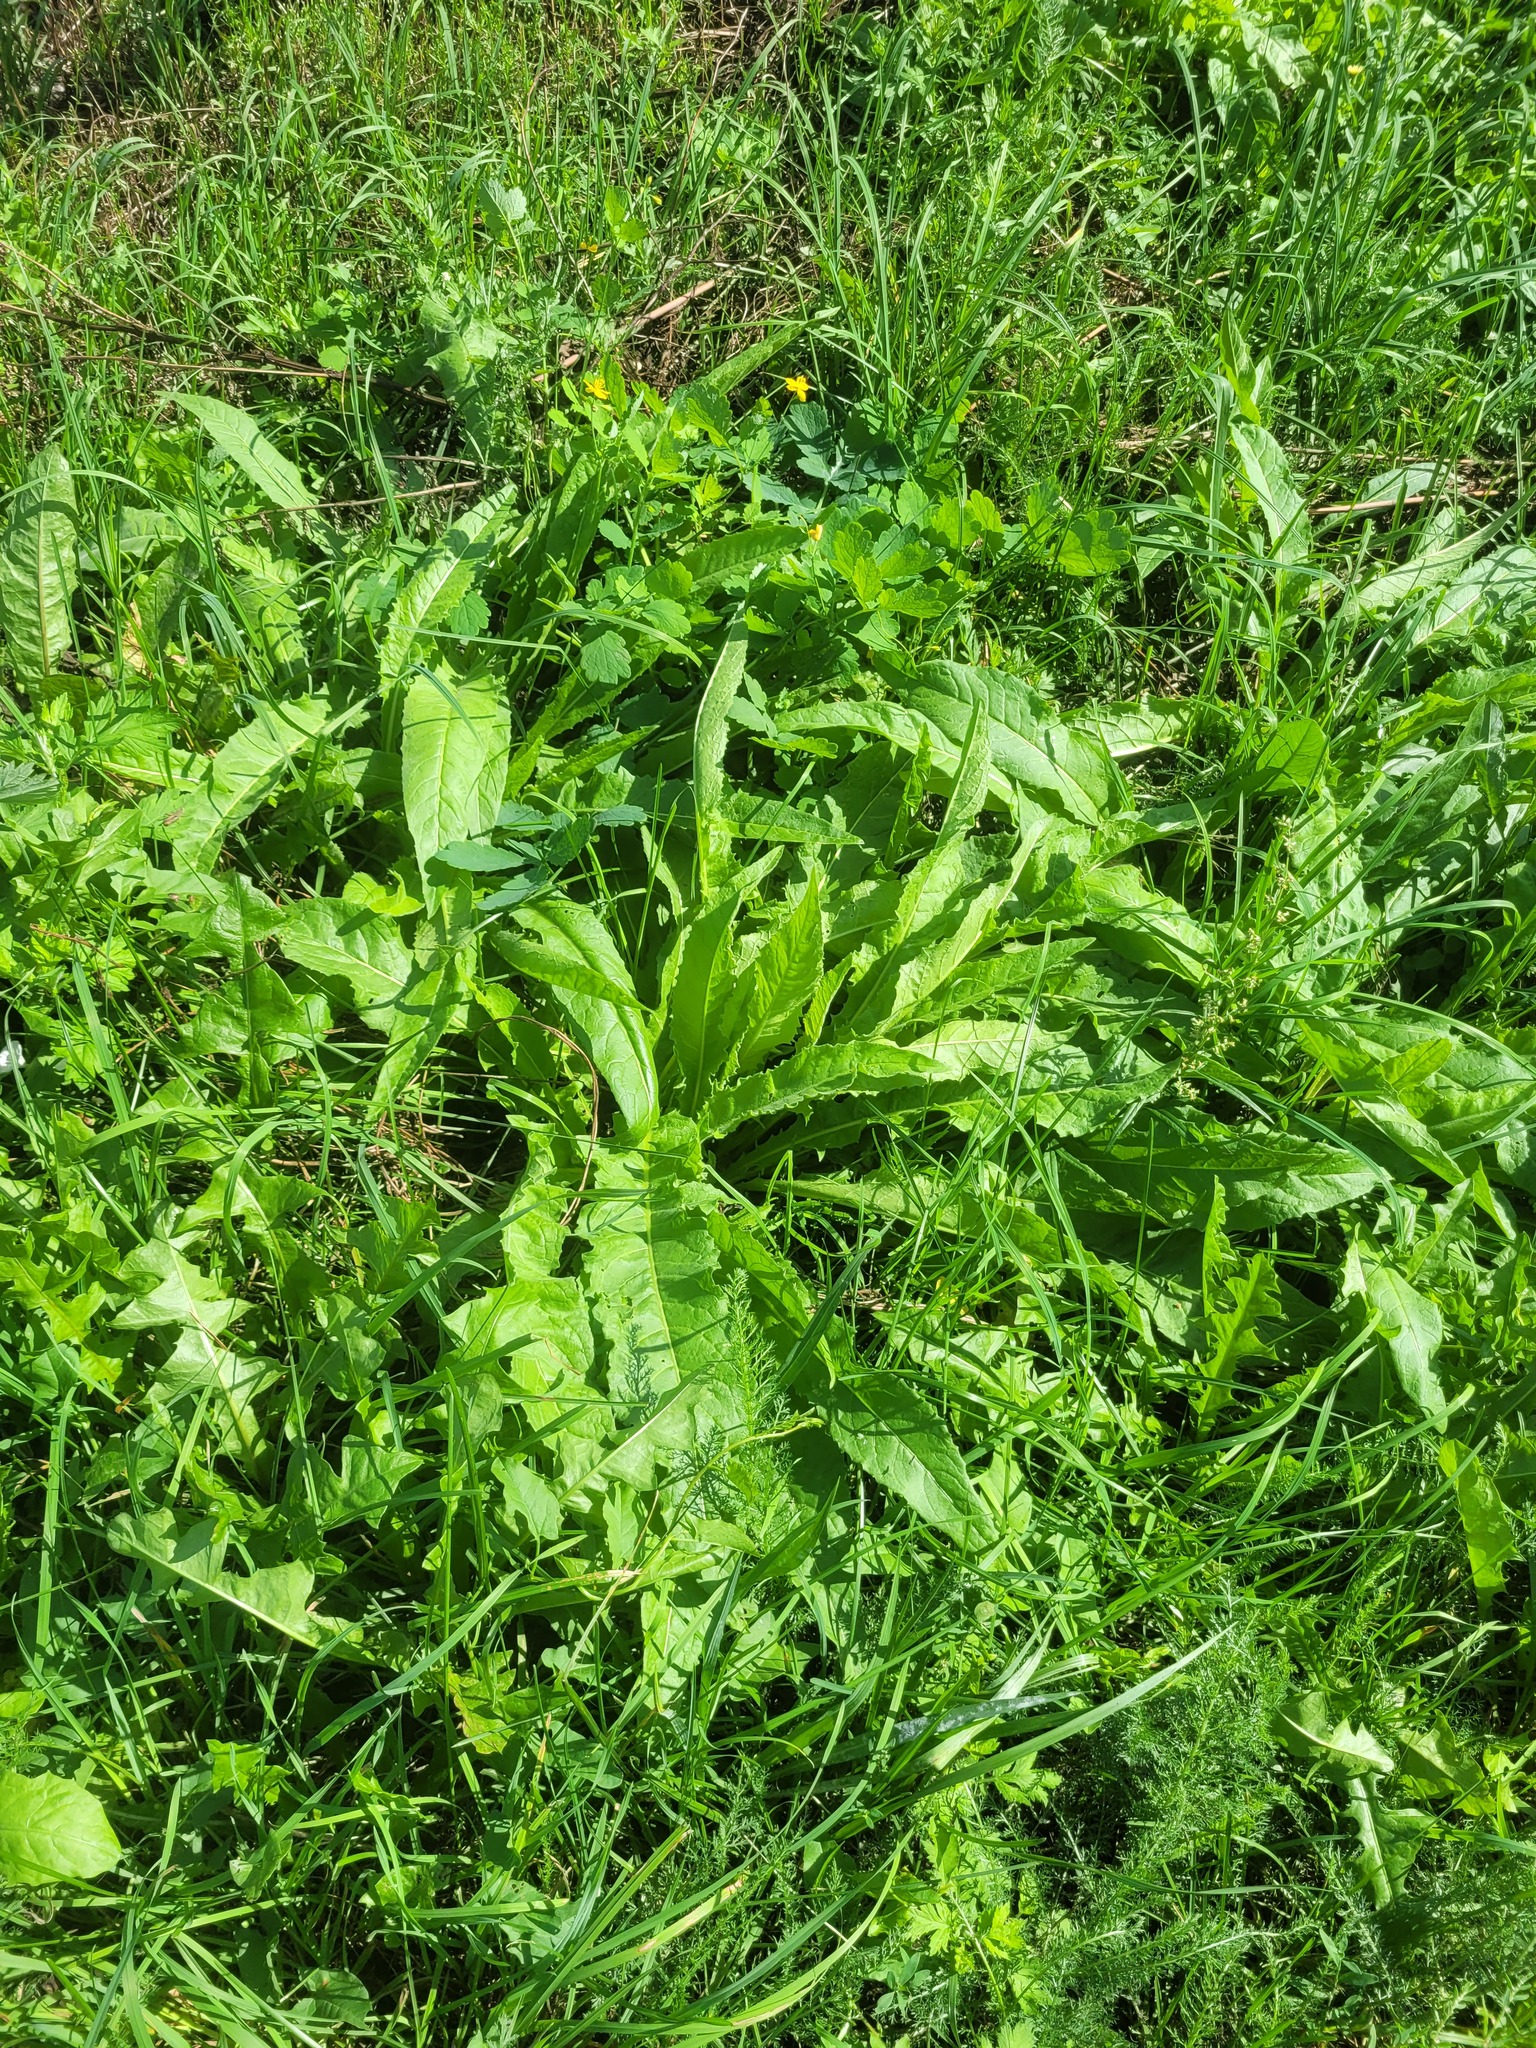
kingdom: Plantae
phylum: Tracheophyta
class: Magnoliopsida
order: Brassicales
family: Brassicaceae
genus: Bunias
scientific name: Bunias orientalis
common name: Warty-cabbage
